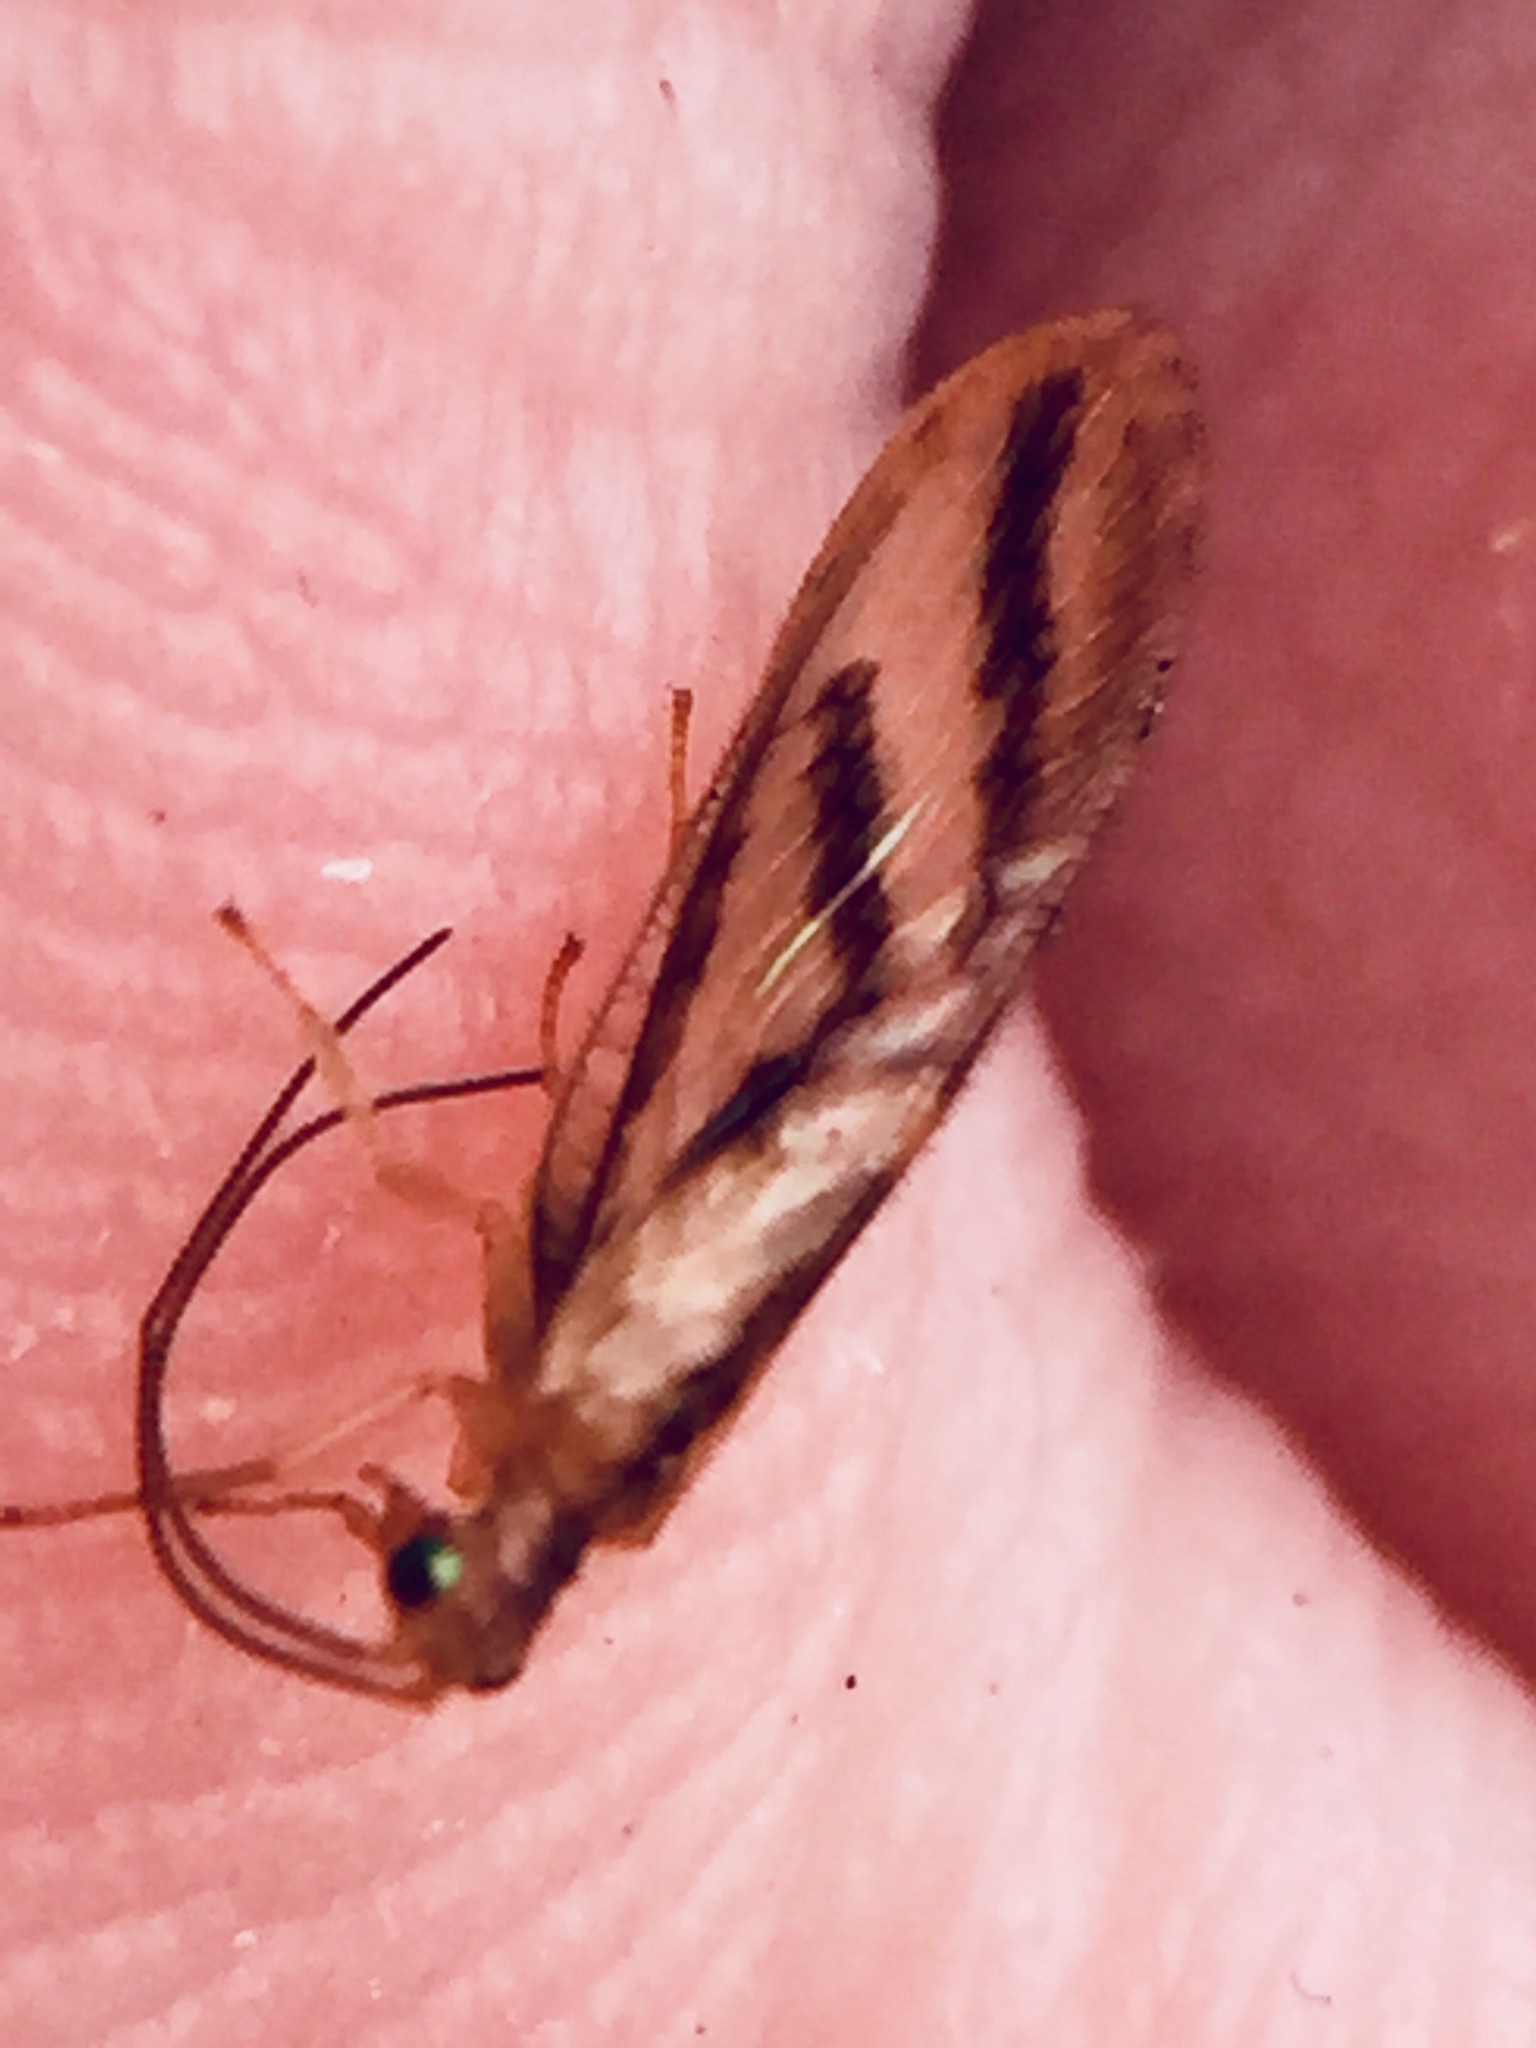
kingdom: Animalia
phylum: Arthropoda
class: Insecta
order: Neuroptera
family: Hemerobiidae
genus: Micromus
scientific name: Micromus bifasciatus
